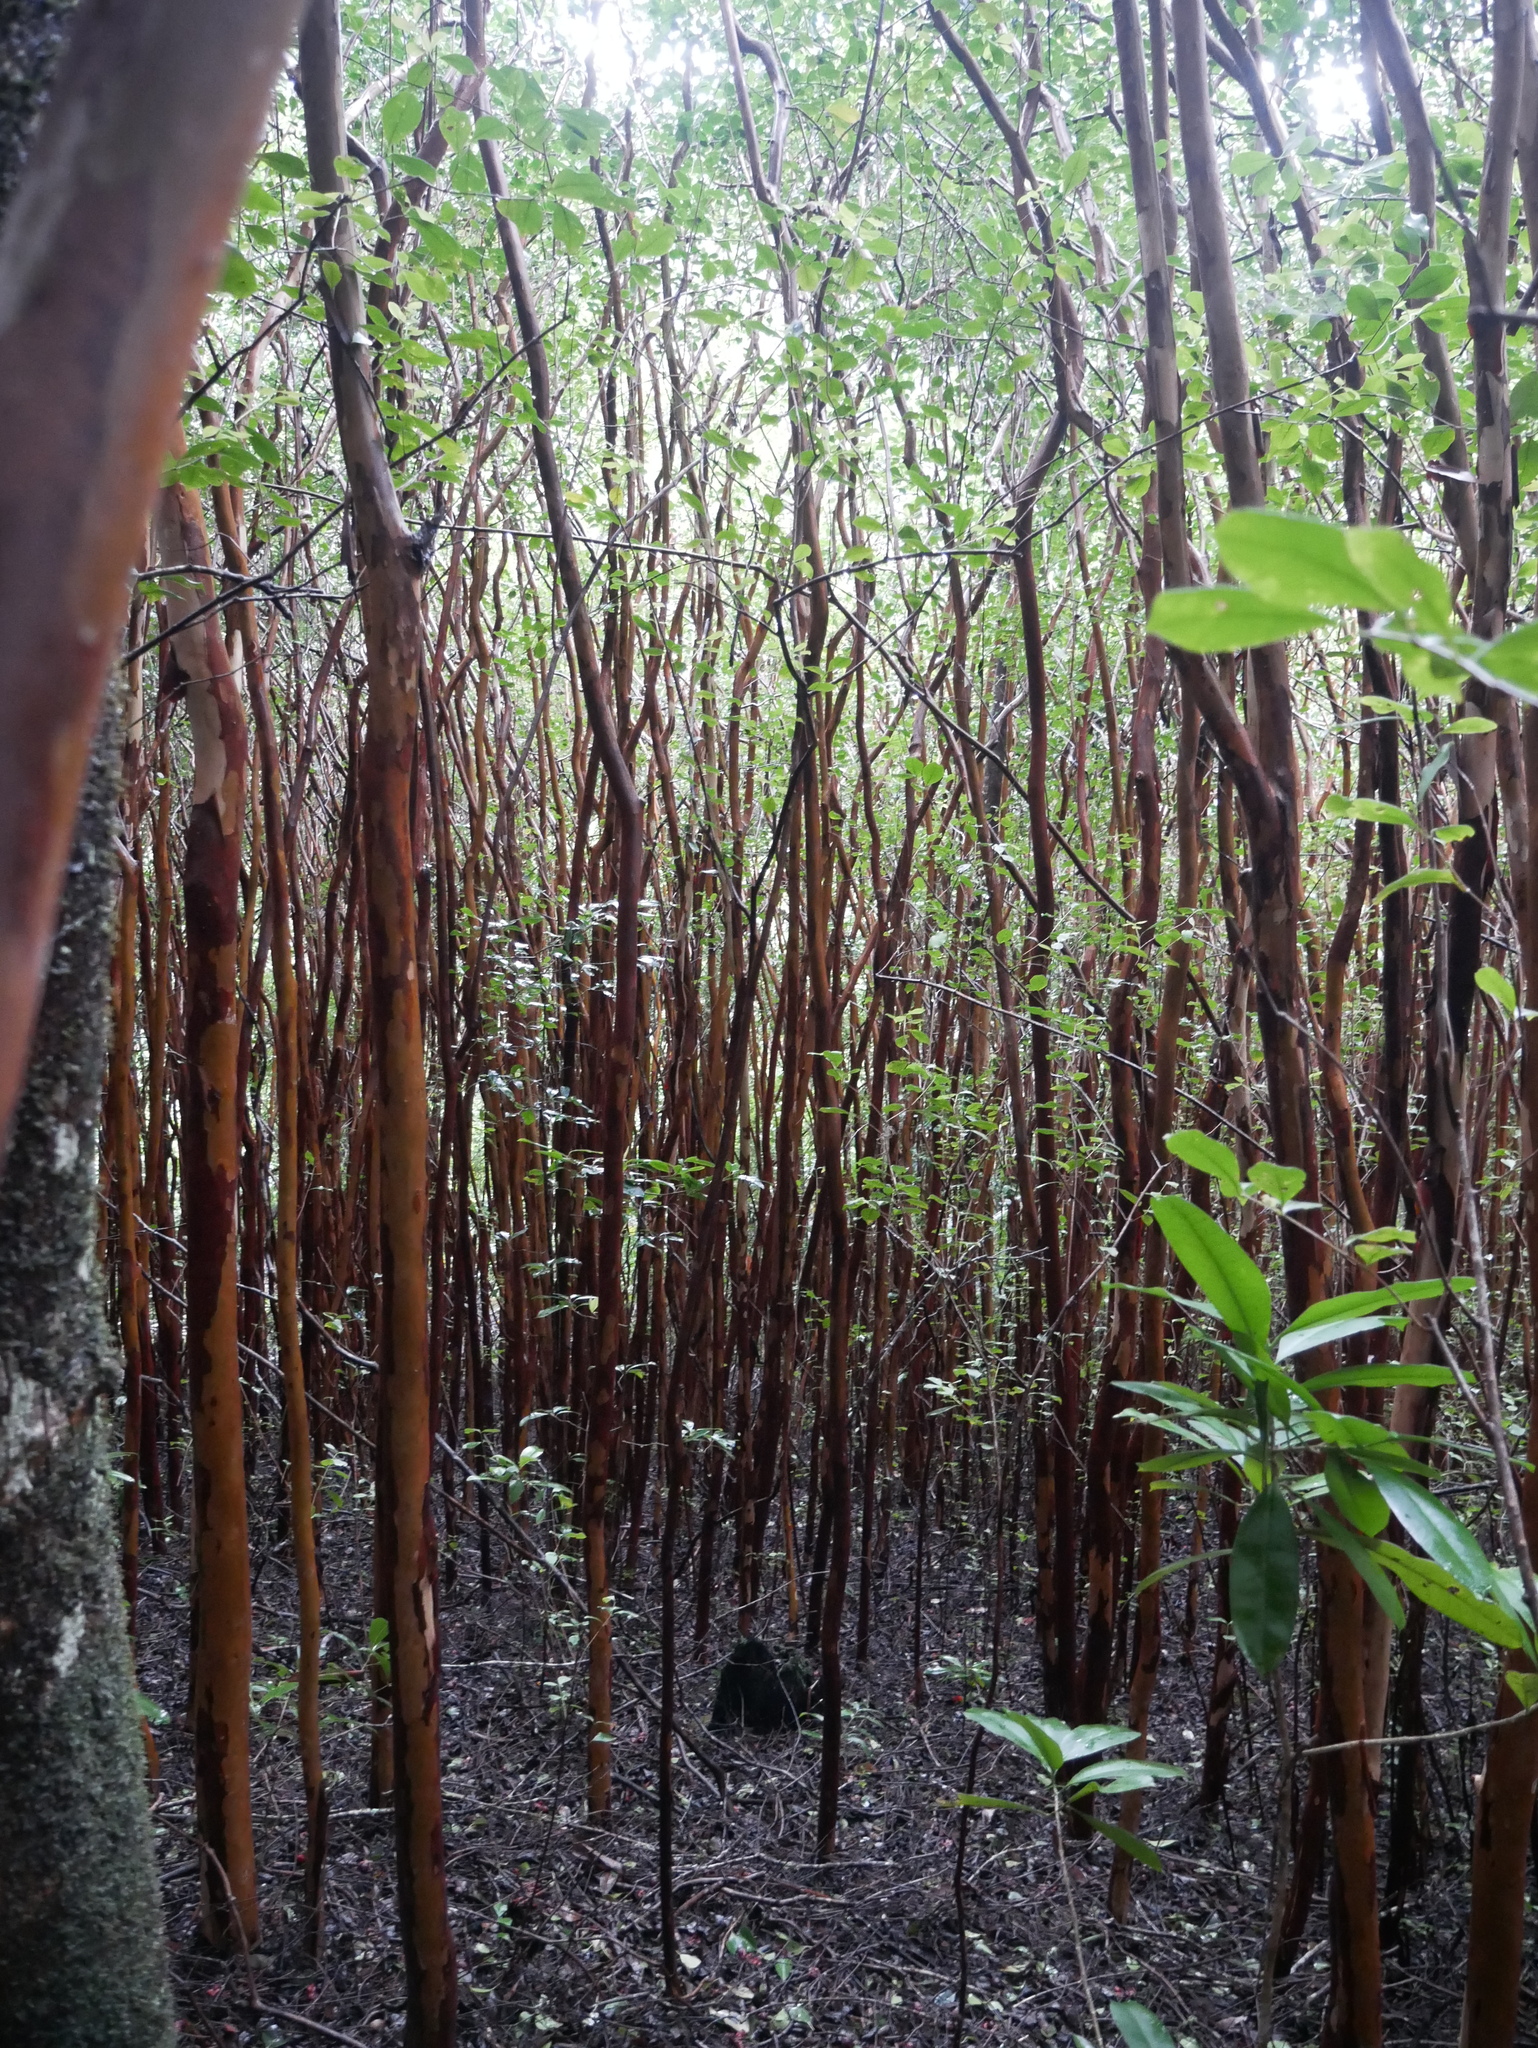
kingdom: Plantae
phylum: Tracheophyta
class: Magnoliopsida
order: Myrtales
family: Myrtaceae
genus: Psidium
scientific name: Psidium cattleianum
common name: Strawberry guava
